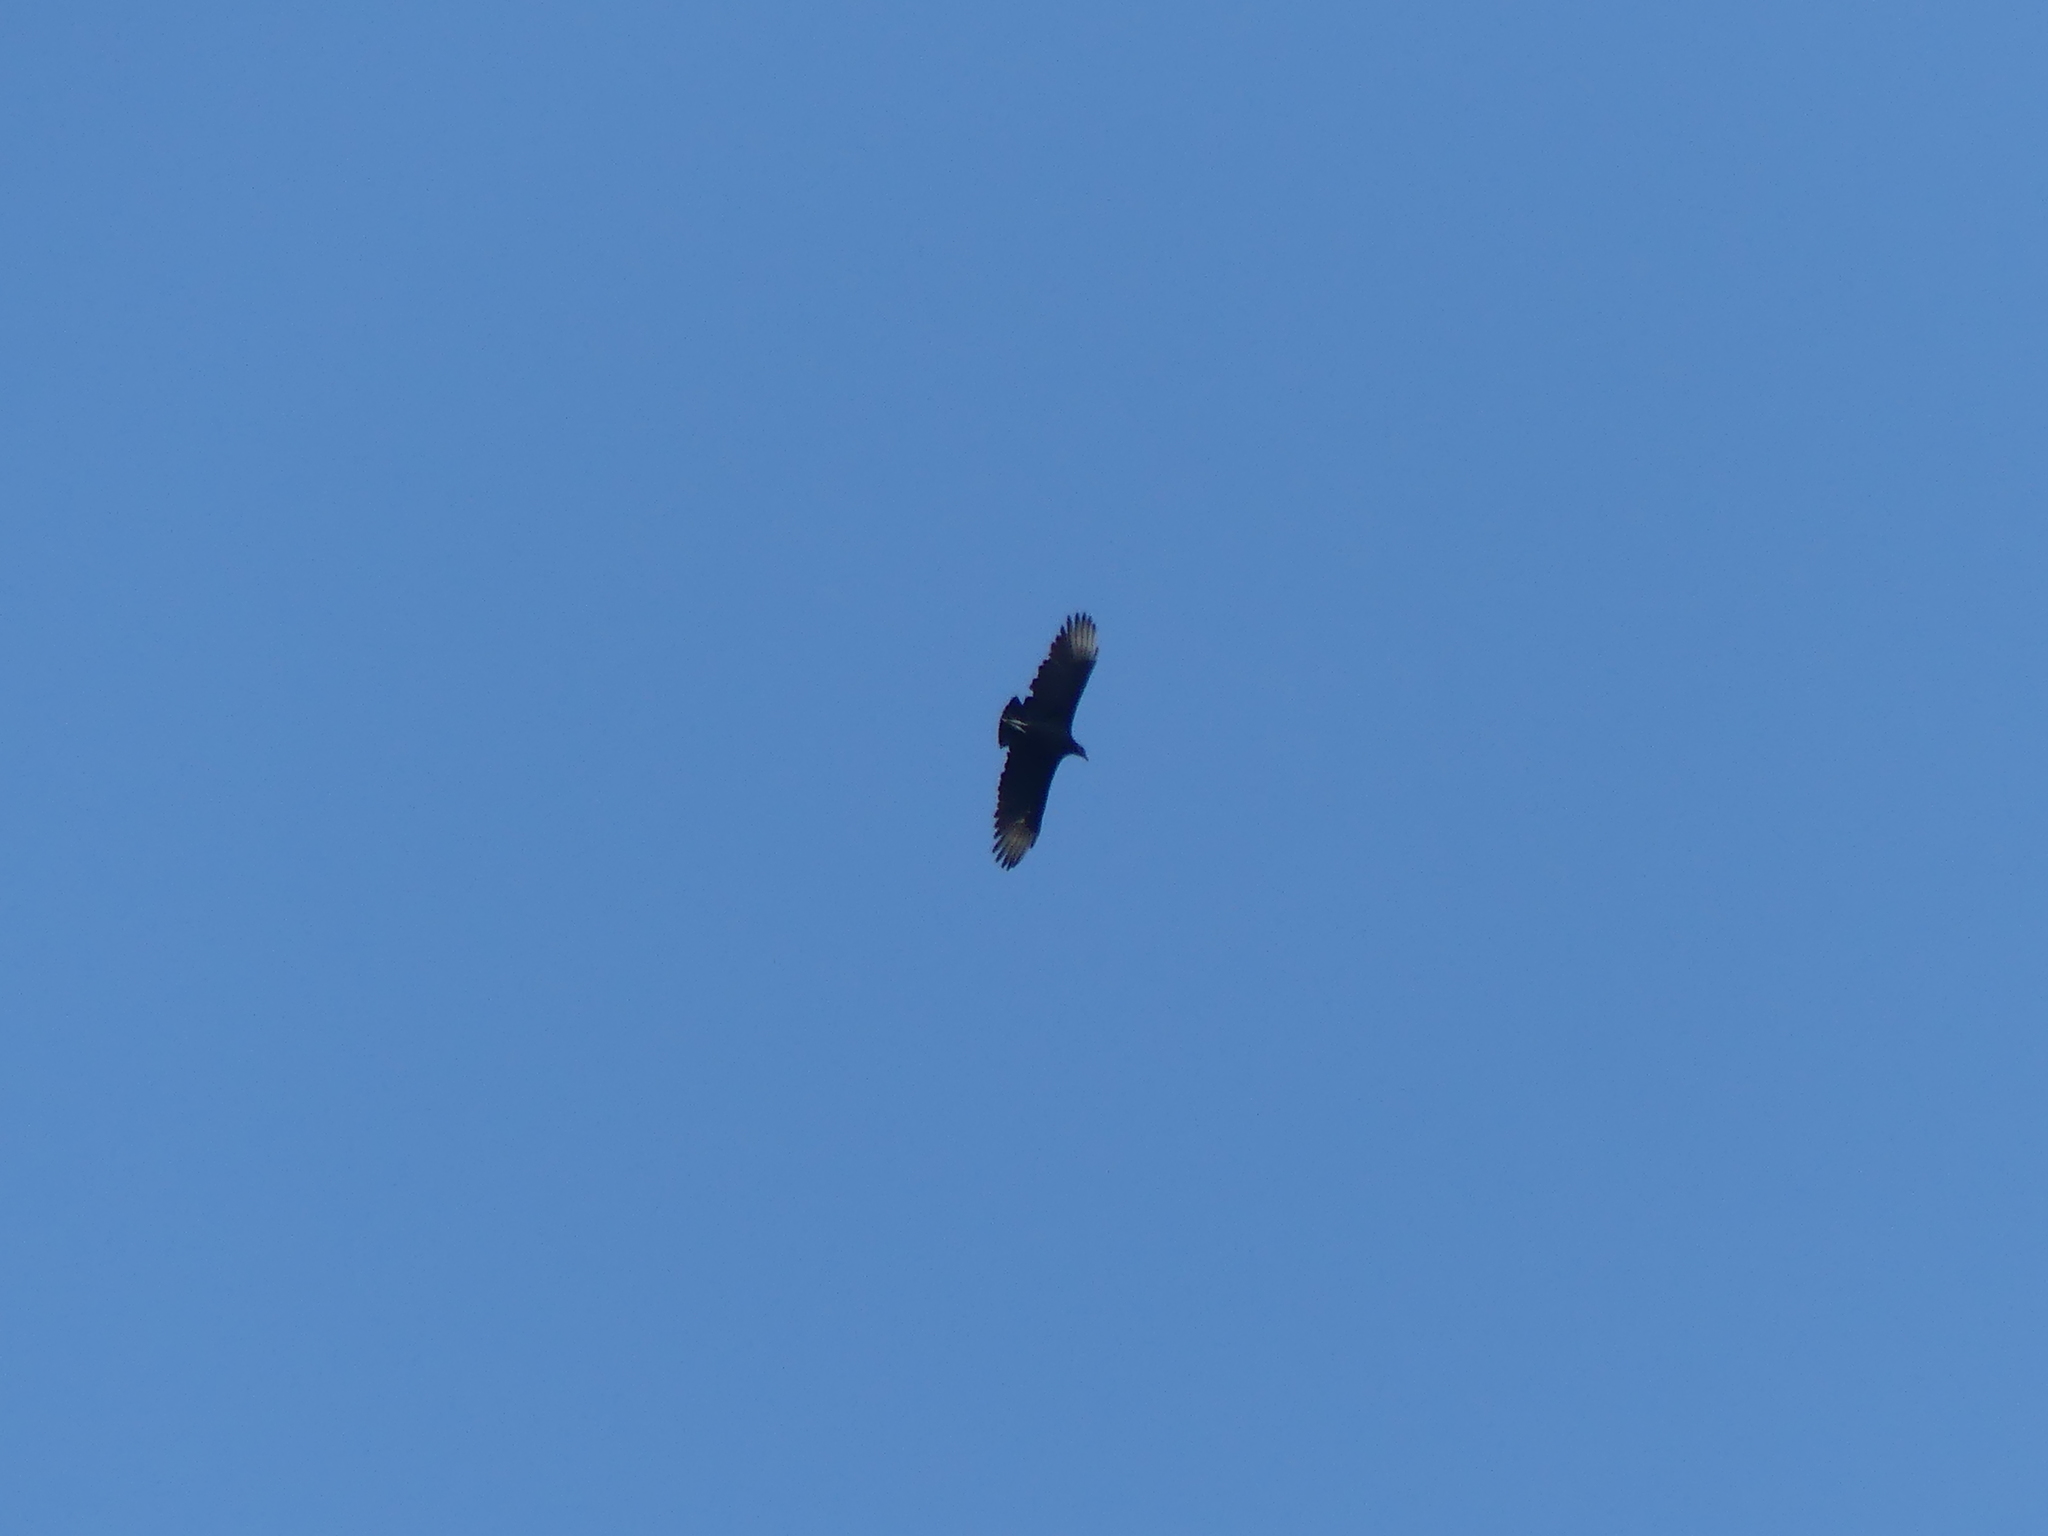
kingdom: Animalia
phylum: Chordata
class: Aves
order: Accipitriformes
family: Cathartidae
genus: Coragyps
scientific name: Coragyps atratus
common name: Black vulture
